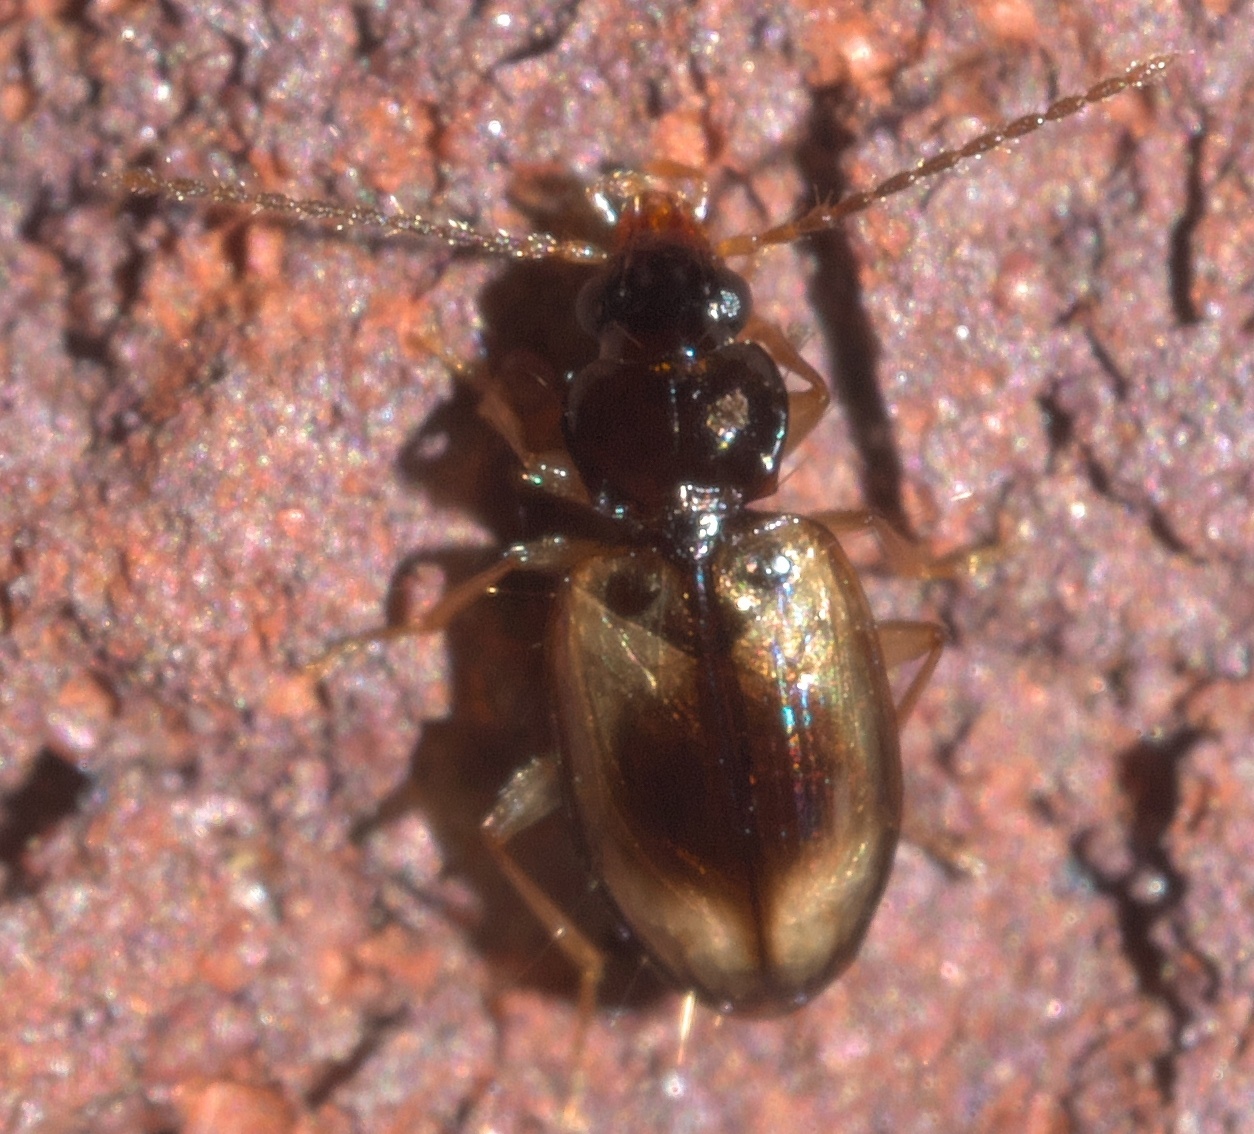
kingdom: Animalia
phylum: Arthropoda
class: Insecta
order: Coleoptera
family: Carabidae
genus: Tachys
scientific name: Tachys proximus
